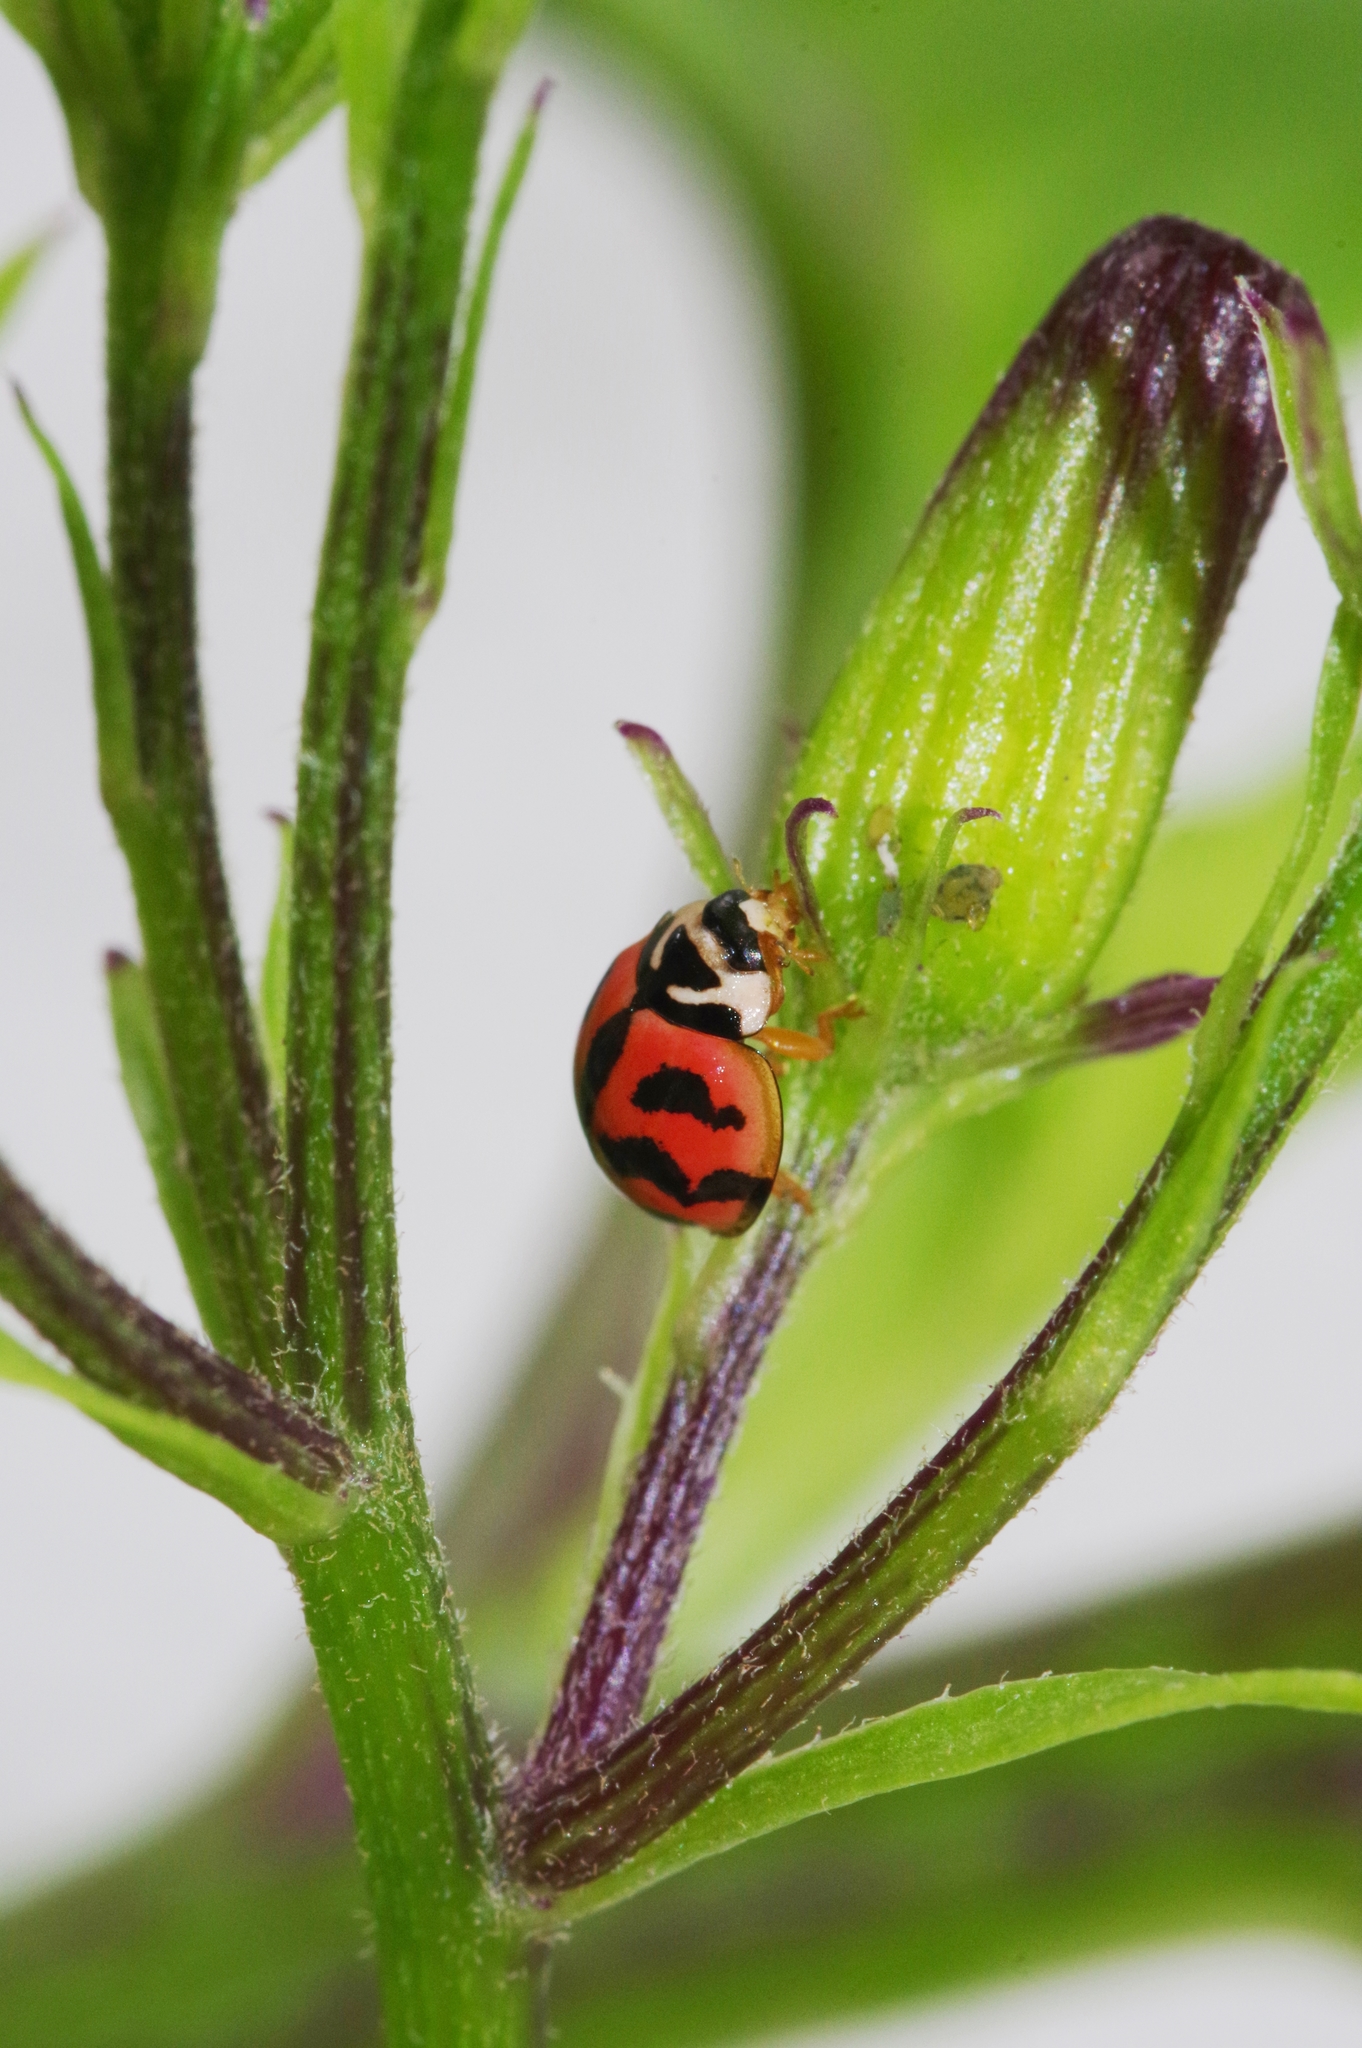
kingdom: Animalia
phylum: Arthropoda
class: Insecta
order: Coleoptera
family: Coccinellidae
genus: Cheilomenes
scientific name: Cheilomenes sexmaculata
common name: Ladybird beetle
